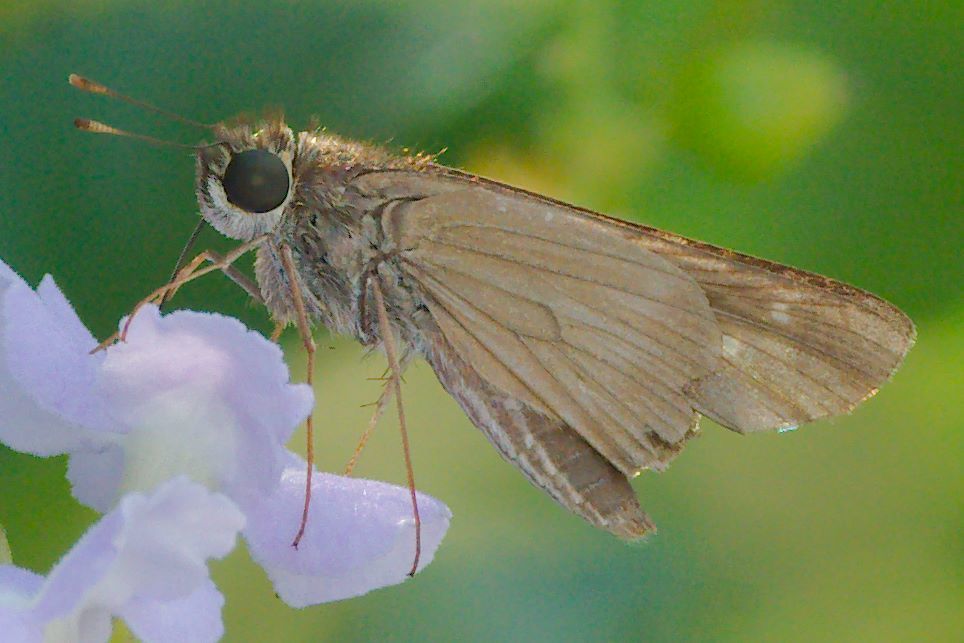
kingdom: Animalia
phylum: Arthropoda
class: Insecta
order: Lepidoptera
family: Hesperiidae
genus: Panoquina
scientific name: Panoquina ocola
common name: Ocola skipper
